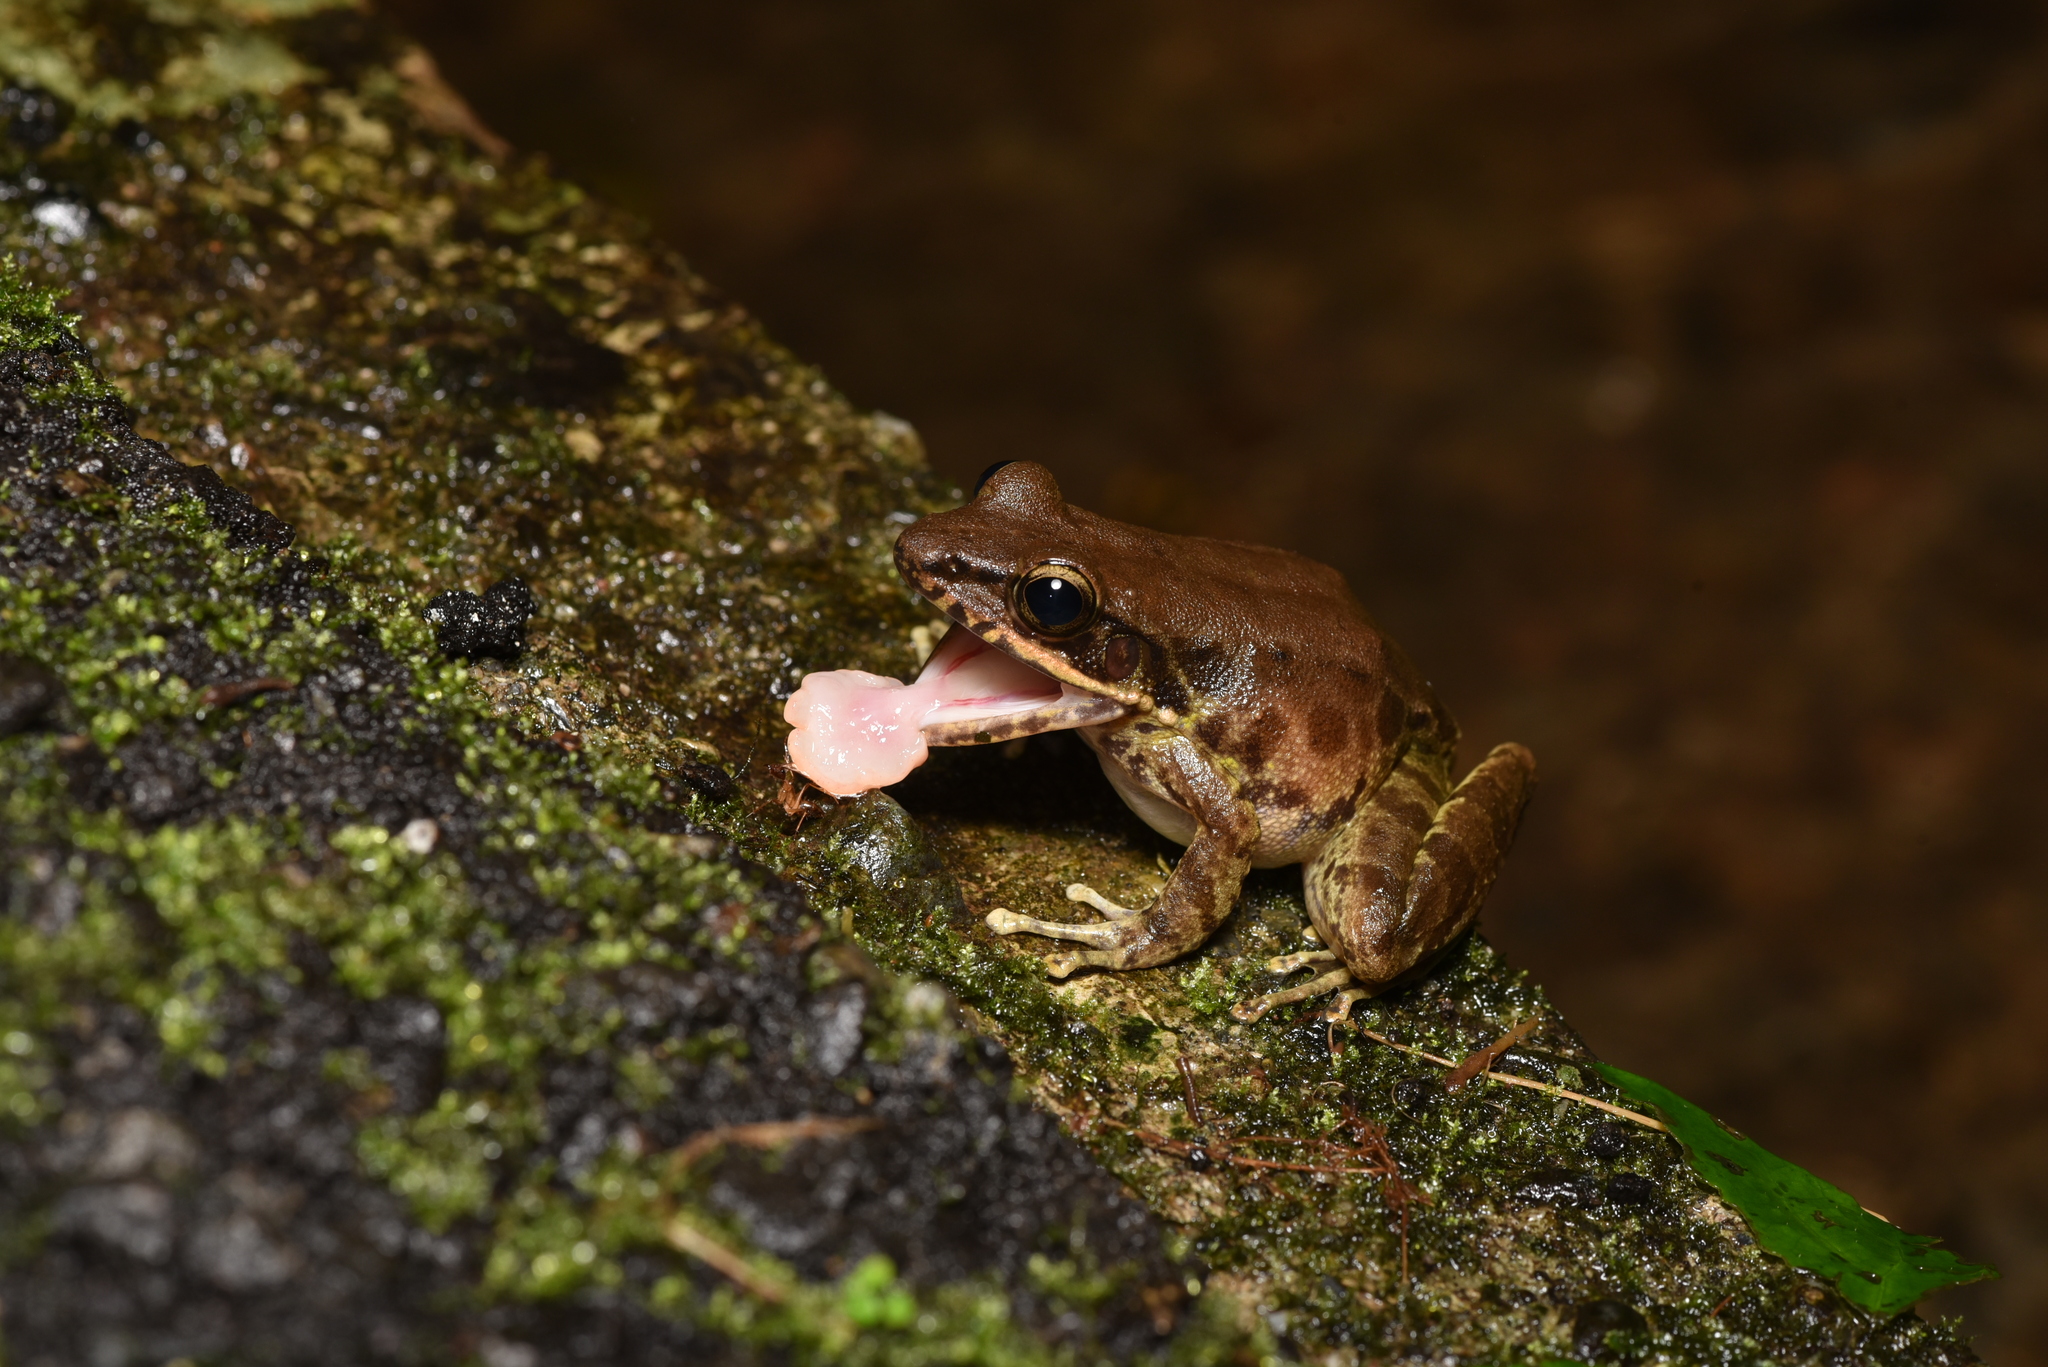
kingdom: Animalia
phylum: Chordata
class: Amphibia
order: Anura
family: Ranidae
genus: Odorrana
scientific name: Odorrana swinhoana
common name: Bangkimtsing frog
